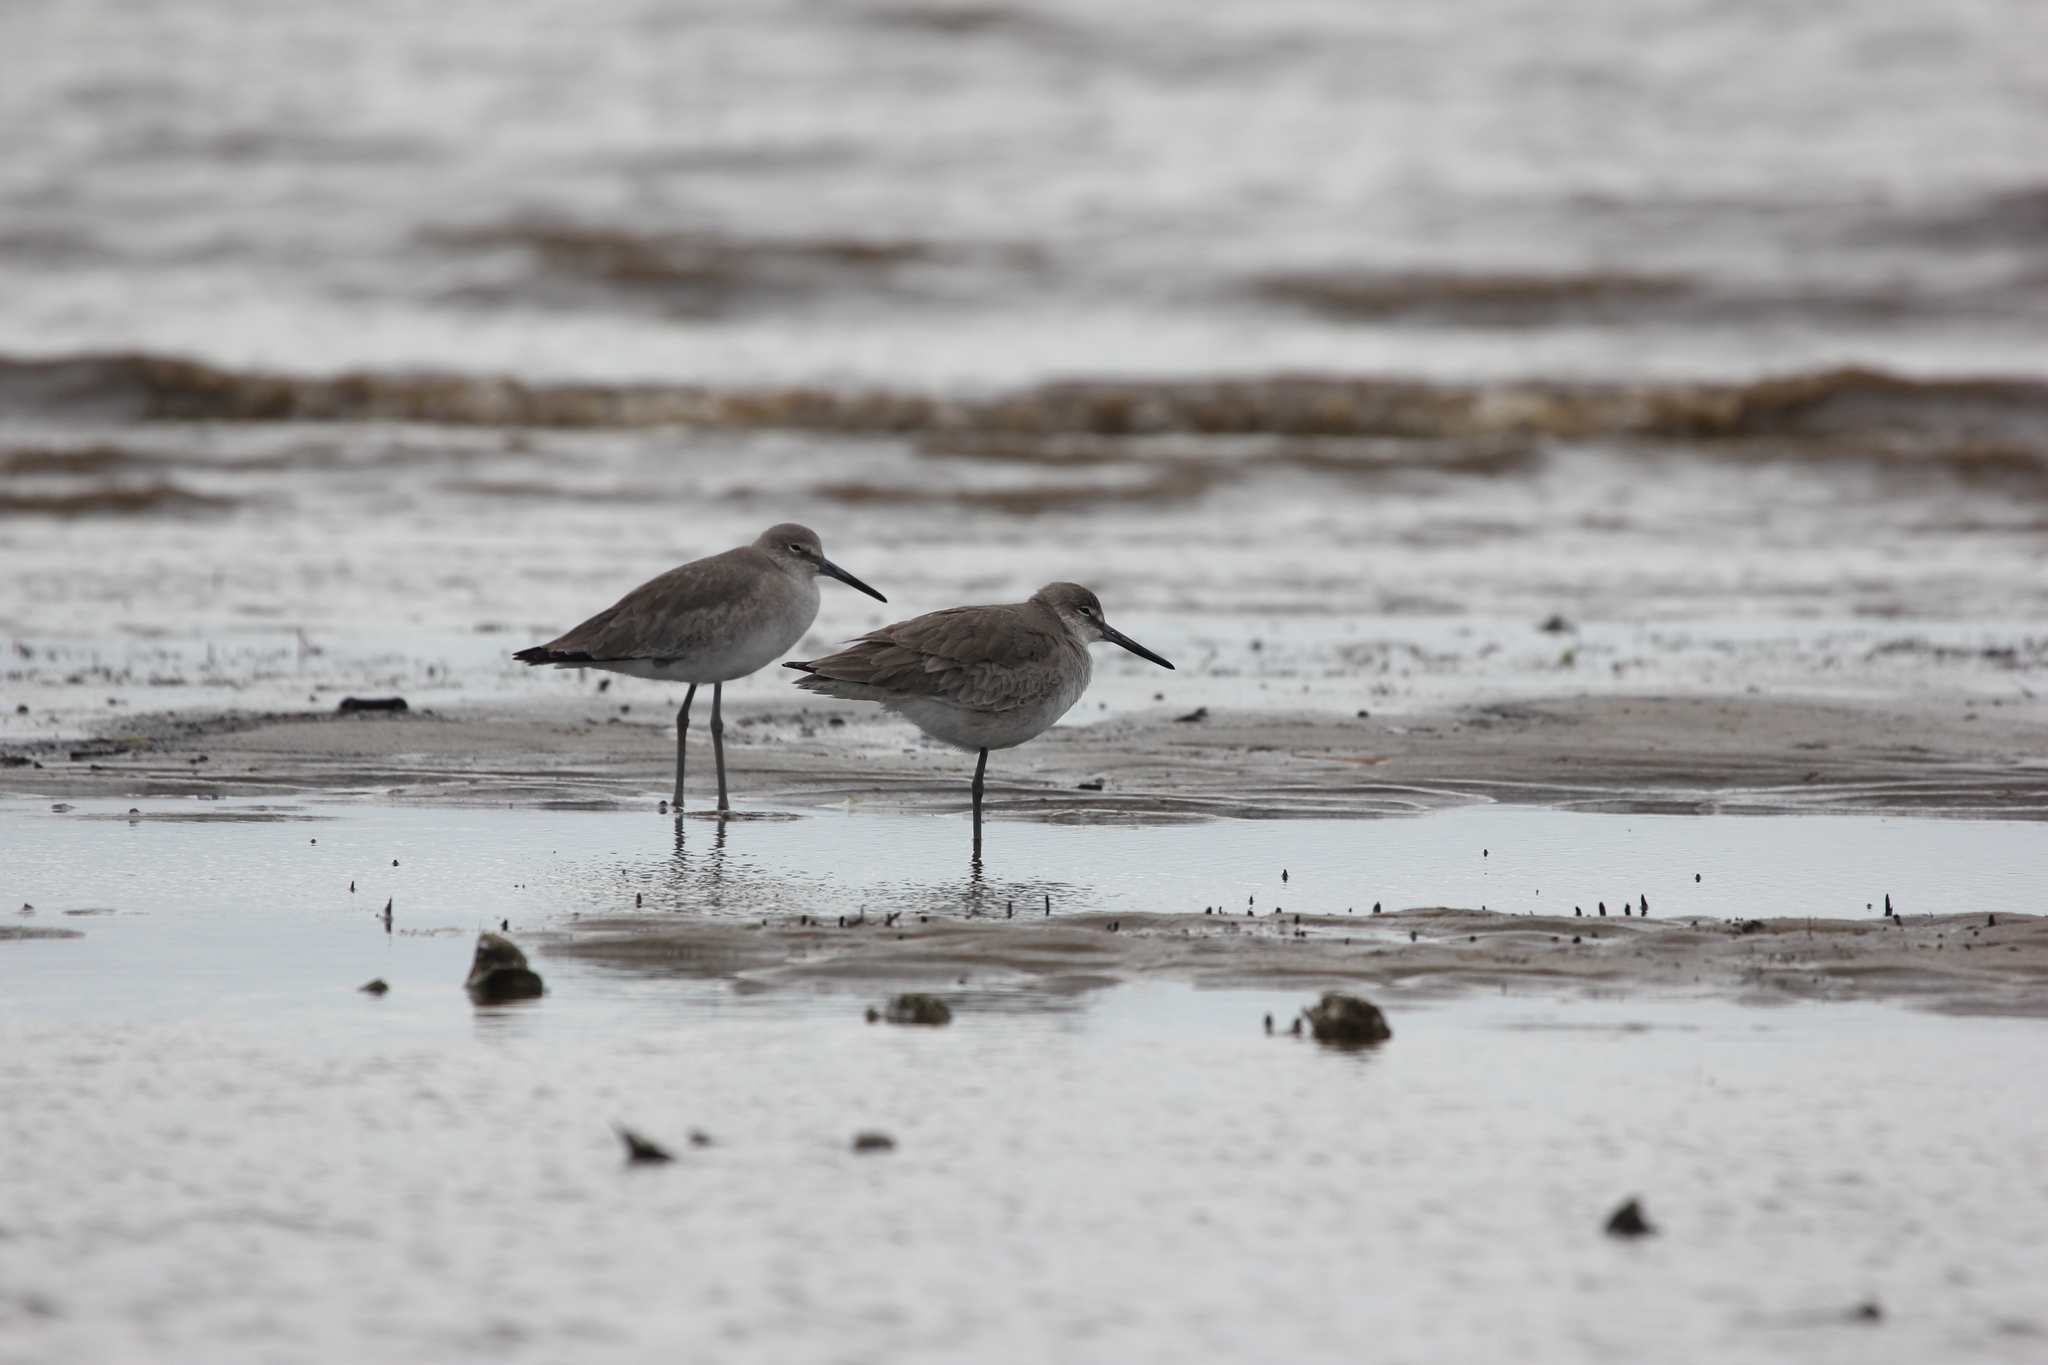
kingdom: Animalia
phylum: Chordata
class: Aves
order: Charadriiformes
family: Scolopacidae
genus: Tringa
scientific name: Tringa semipalmata
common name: Willet
